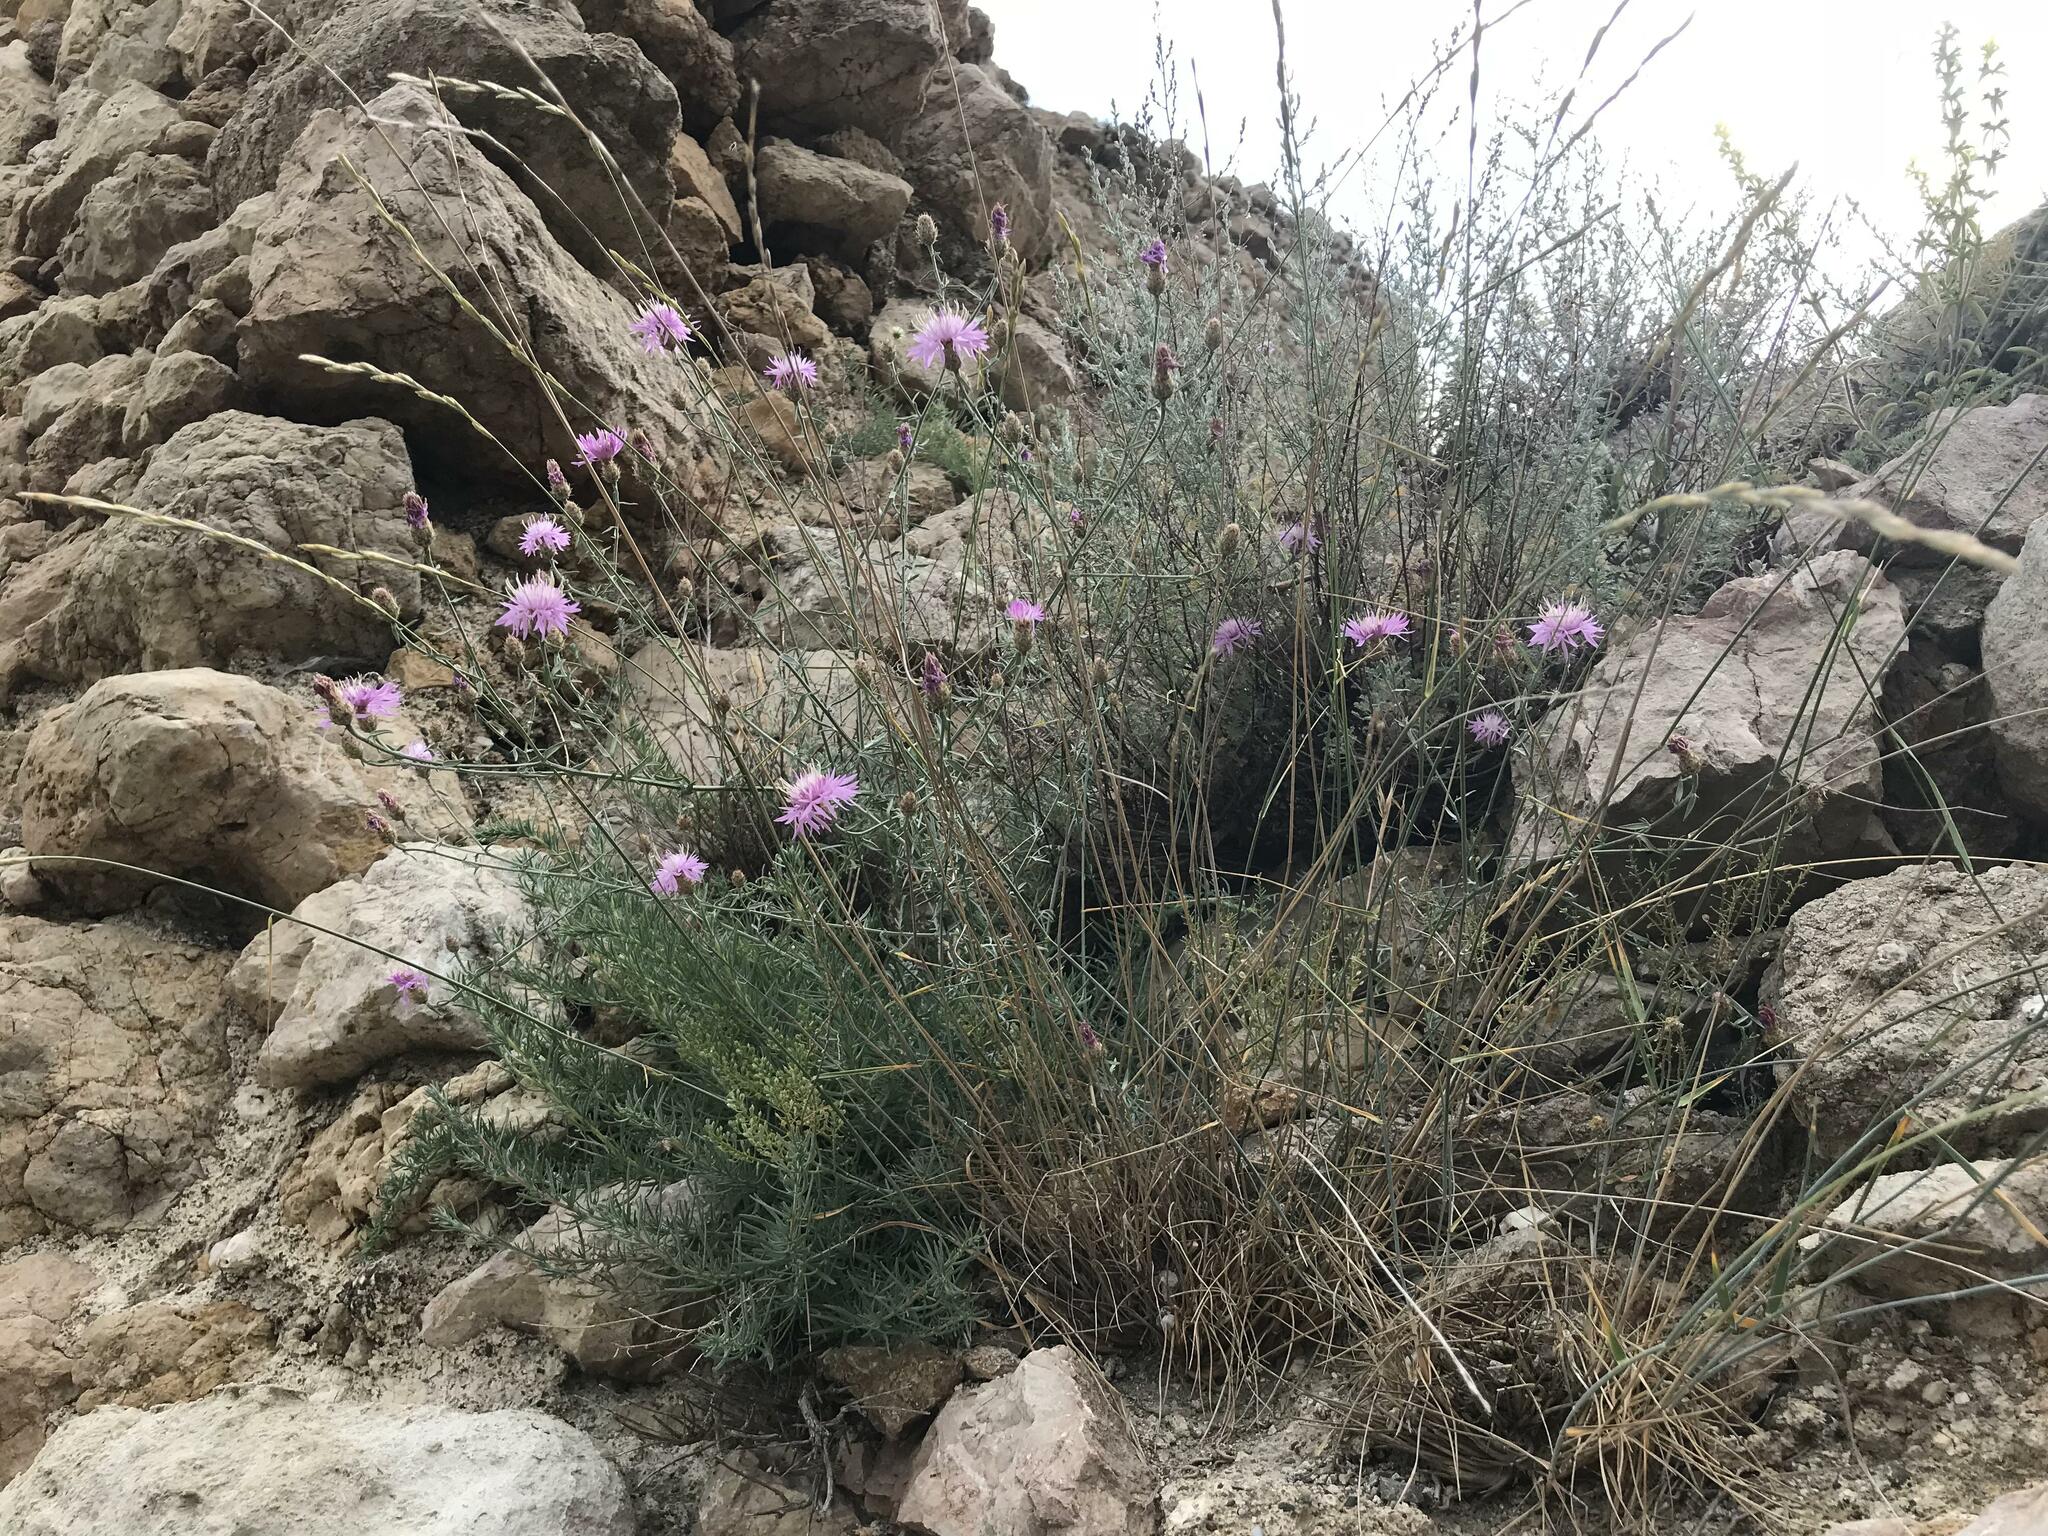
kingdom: Plantae
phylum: Tracheophyta
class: Magnoliopsida
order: Asterales
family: Asteraceae
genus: Centaurea
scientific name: Centaurea caprina
